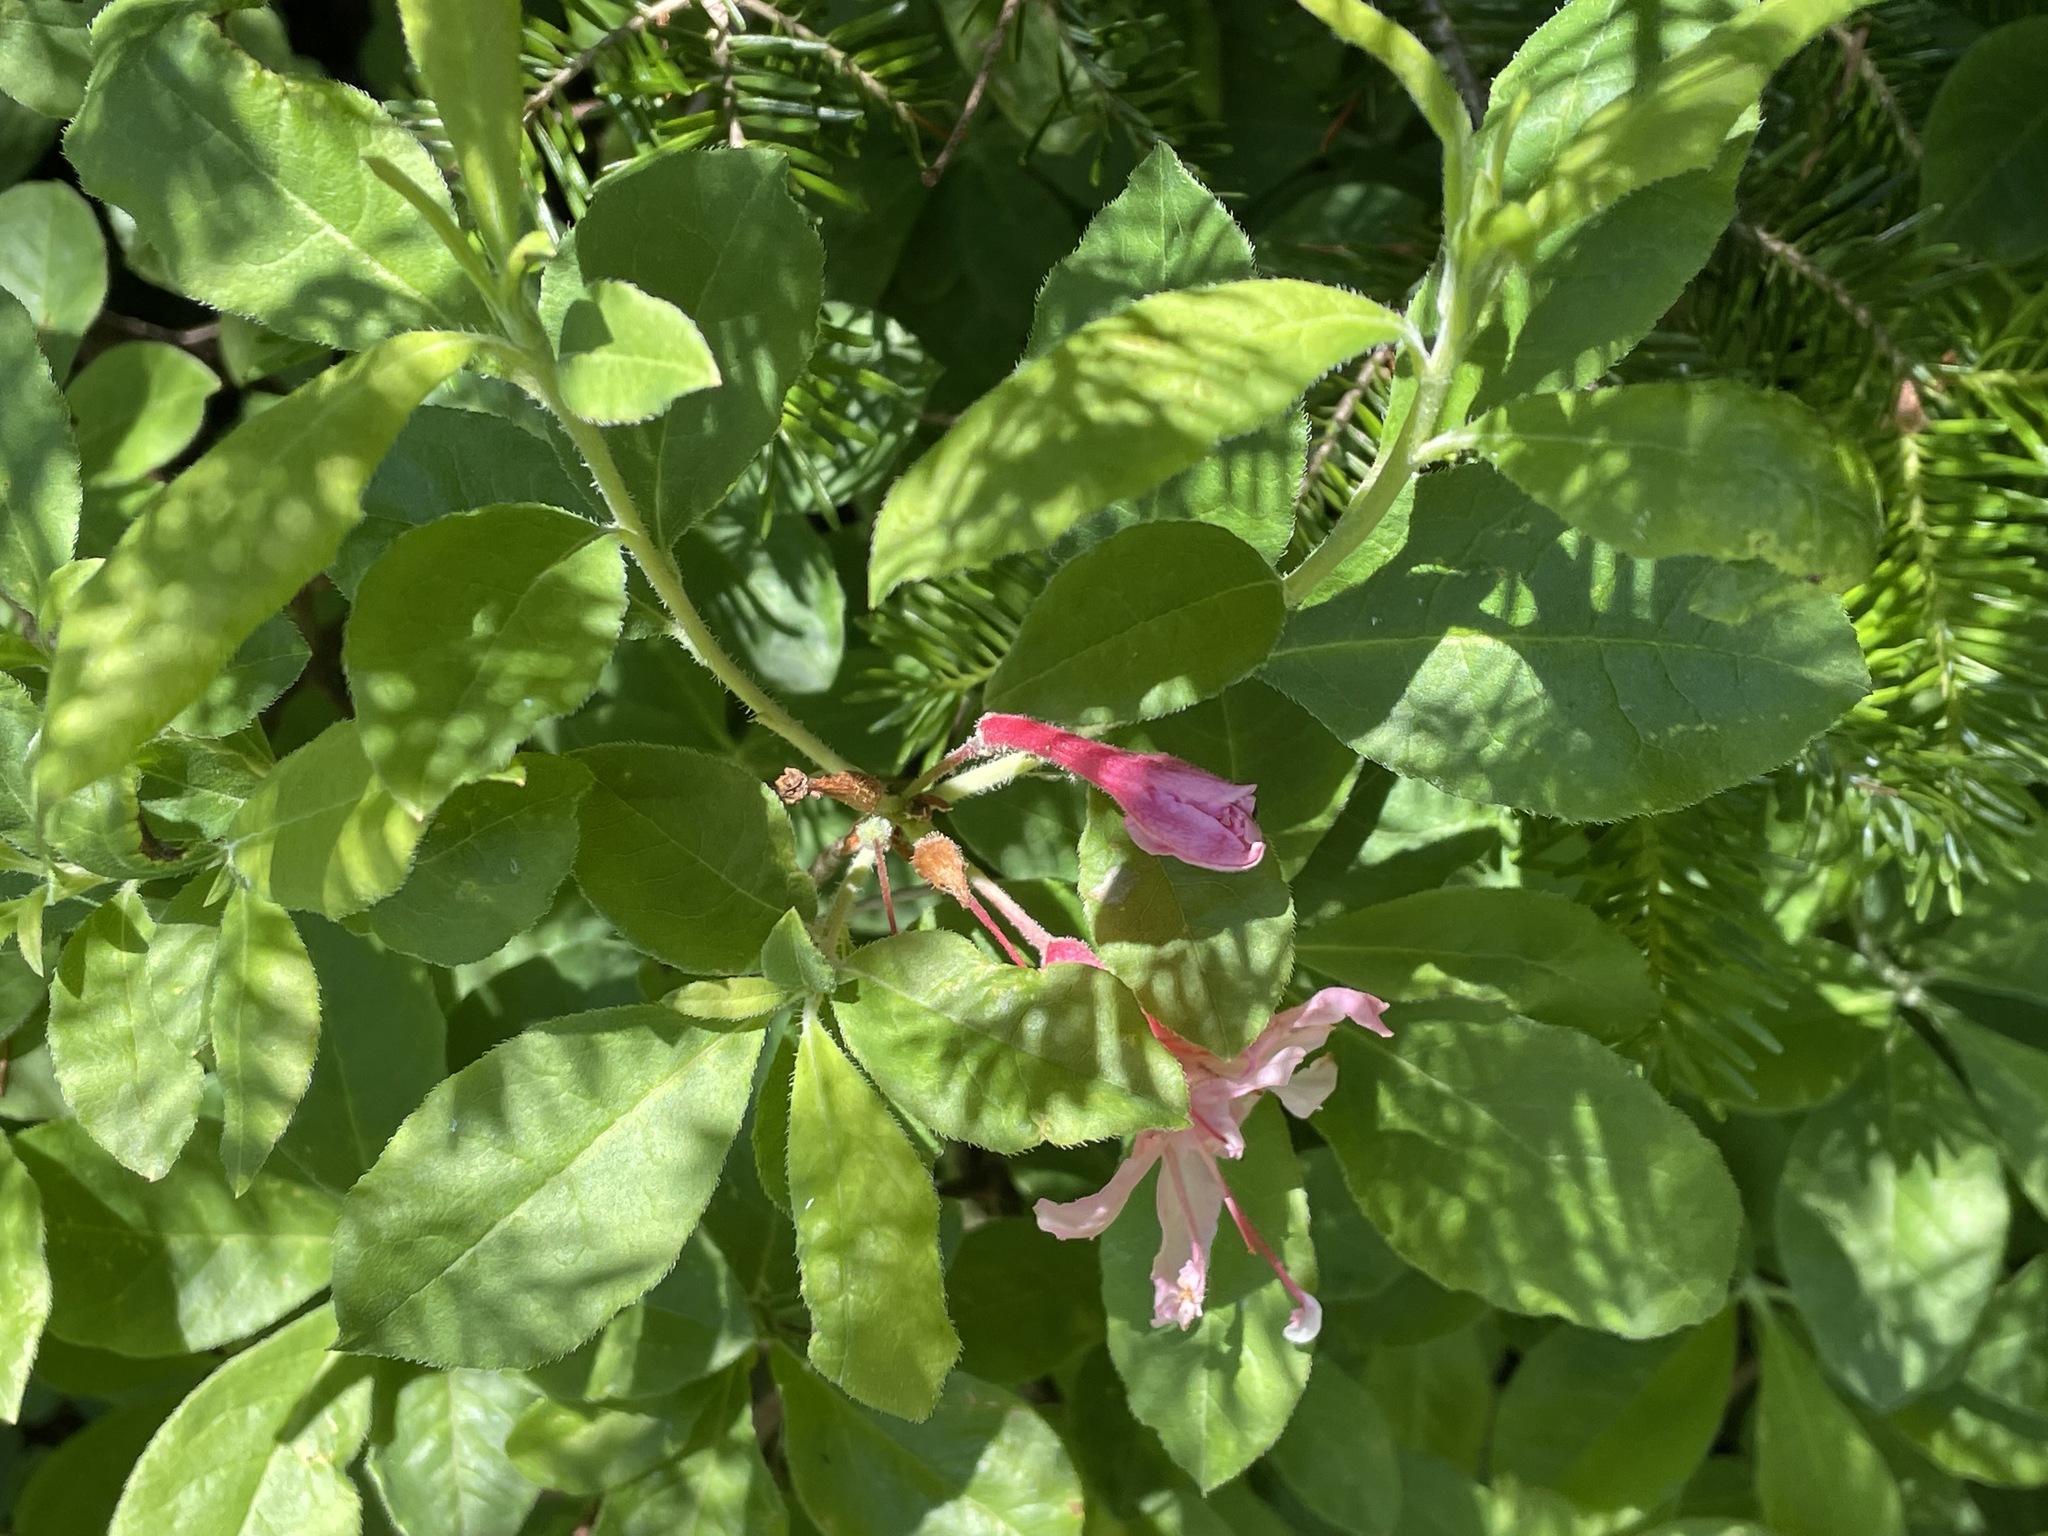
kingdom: Plantae
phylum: Tracheophyta
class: Magnoliopsida
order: Ericales
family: Ericaceae
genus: Rhododendron
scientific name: Rhododendron roseum
